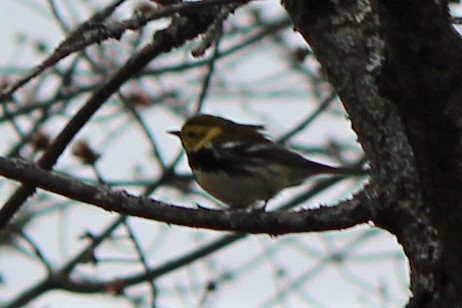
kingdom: Animalia
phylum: Chordata
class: Aves
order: Passeriformes
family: Parulidae
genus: Setophaga
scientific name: Setophaga virens
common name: Black-throated green warbler
